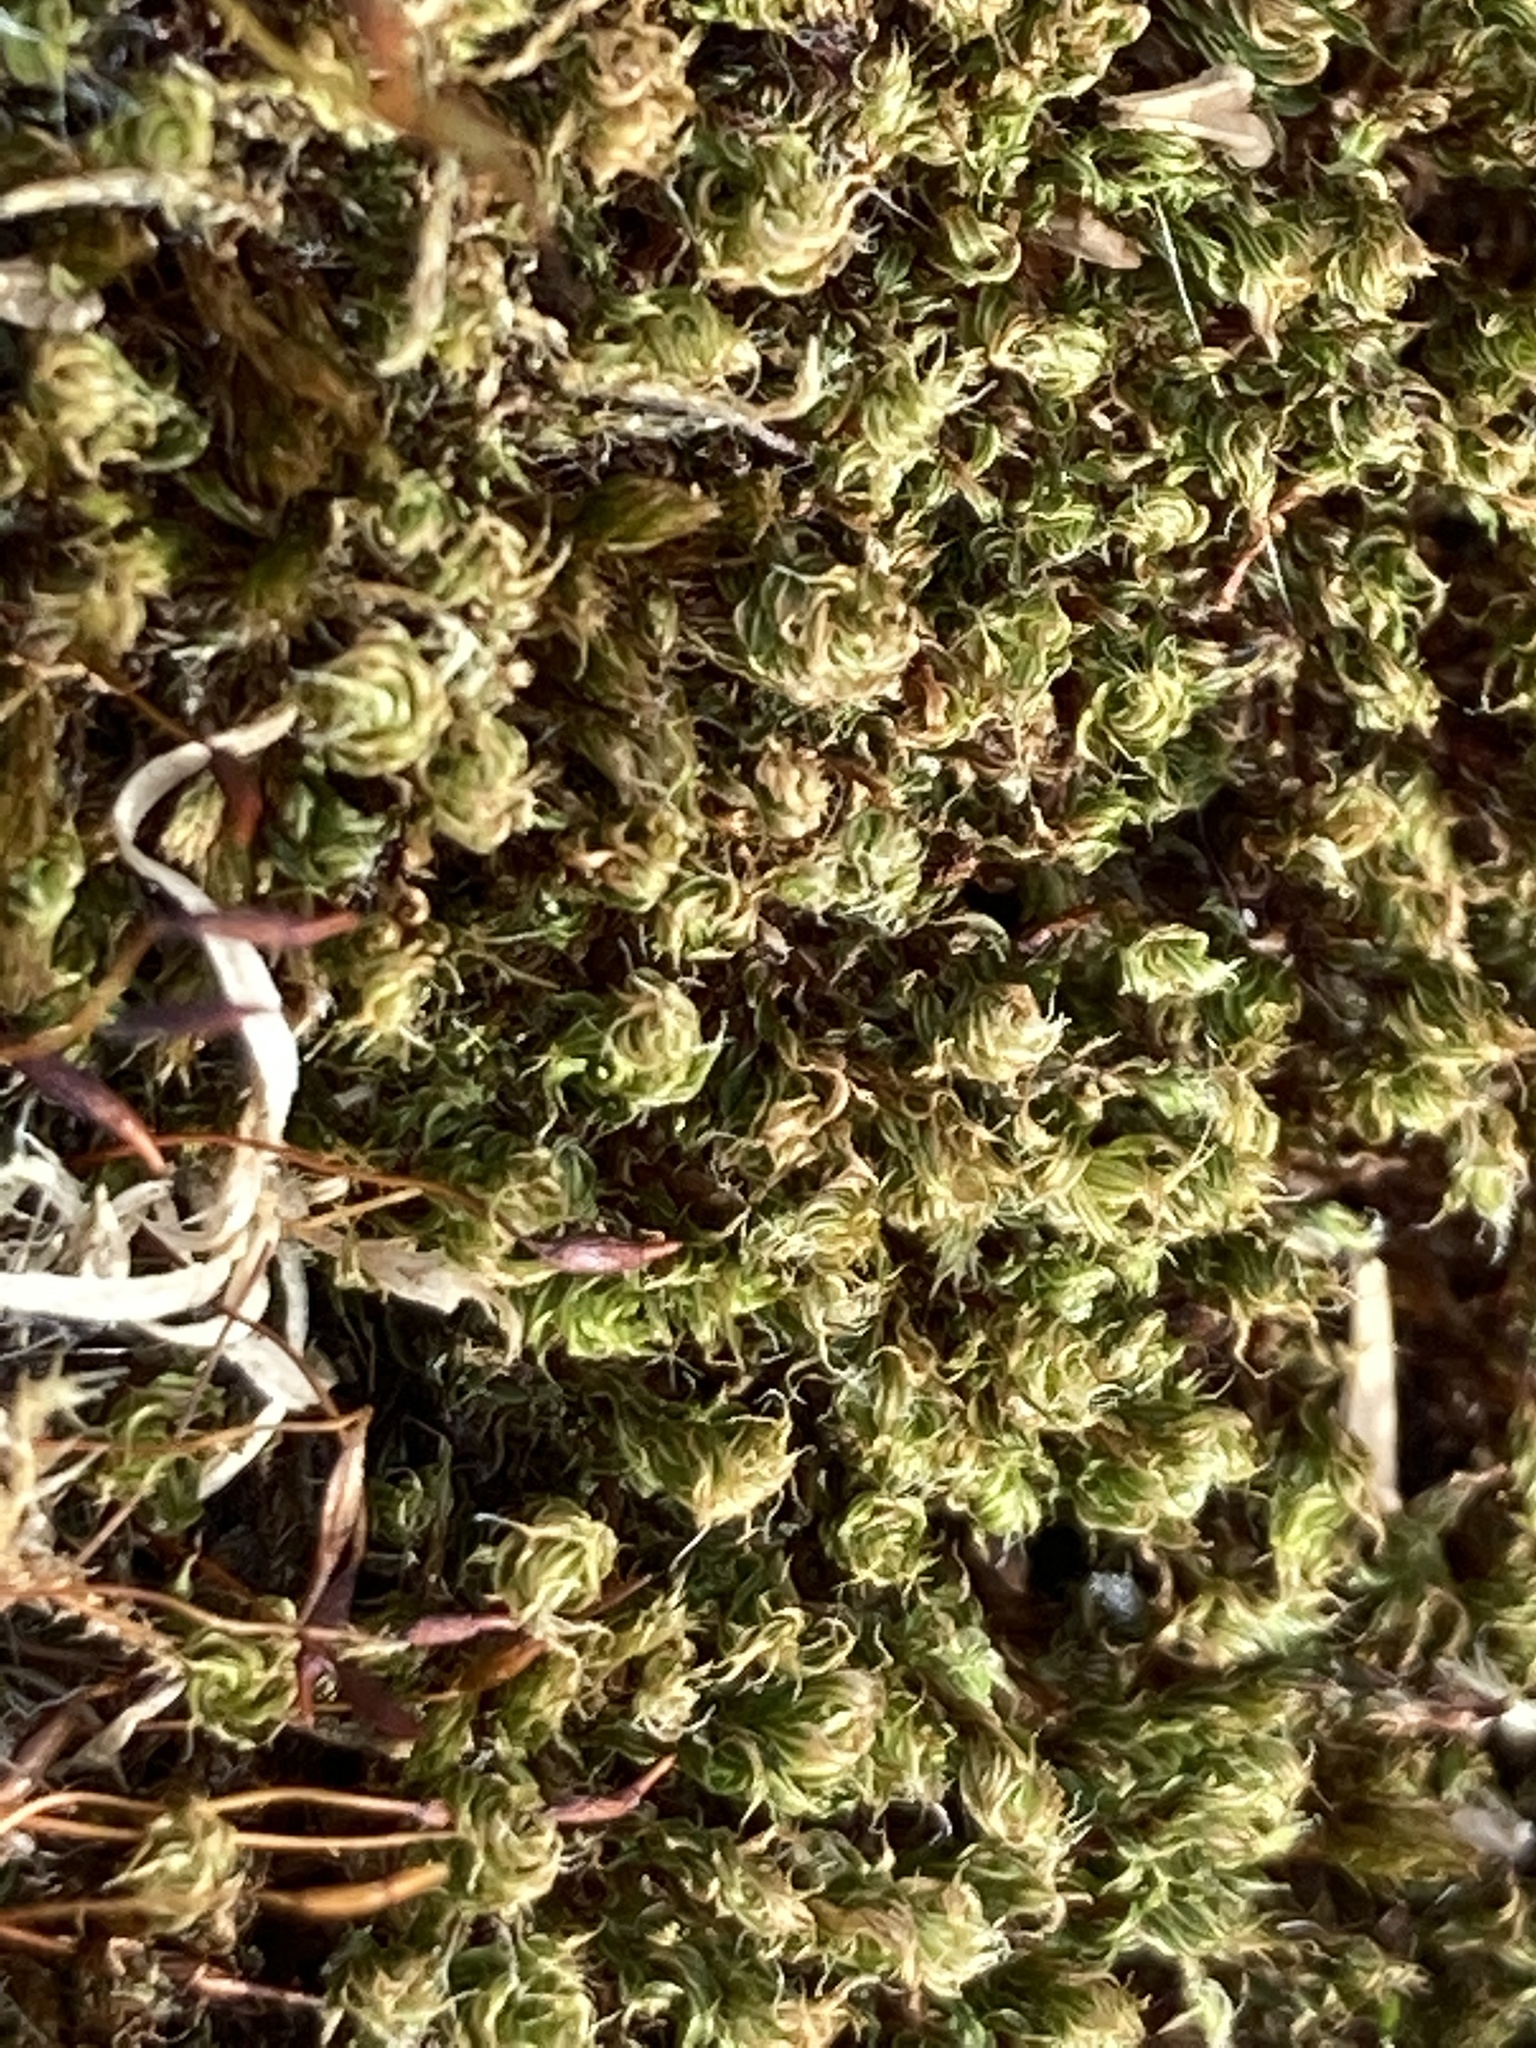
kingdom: Plantae
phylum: Bryophyta
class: Bryopsida
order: Bryales
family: Bryaceae
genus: Rosulabryum
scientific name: Rosulabryum capillare
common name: Capillary thread-moss
